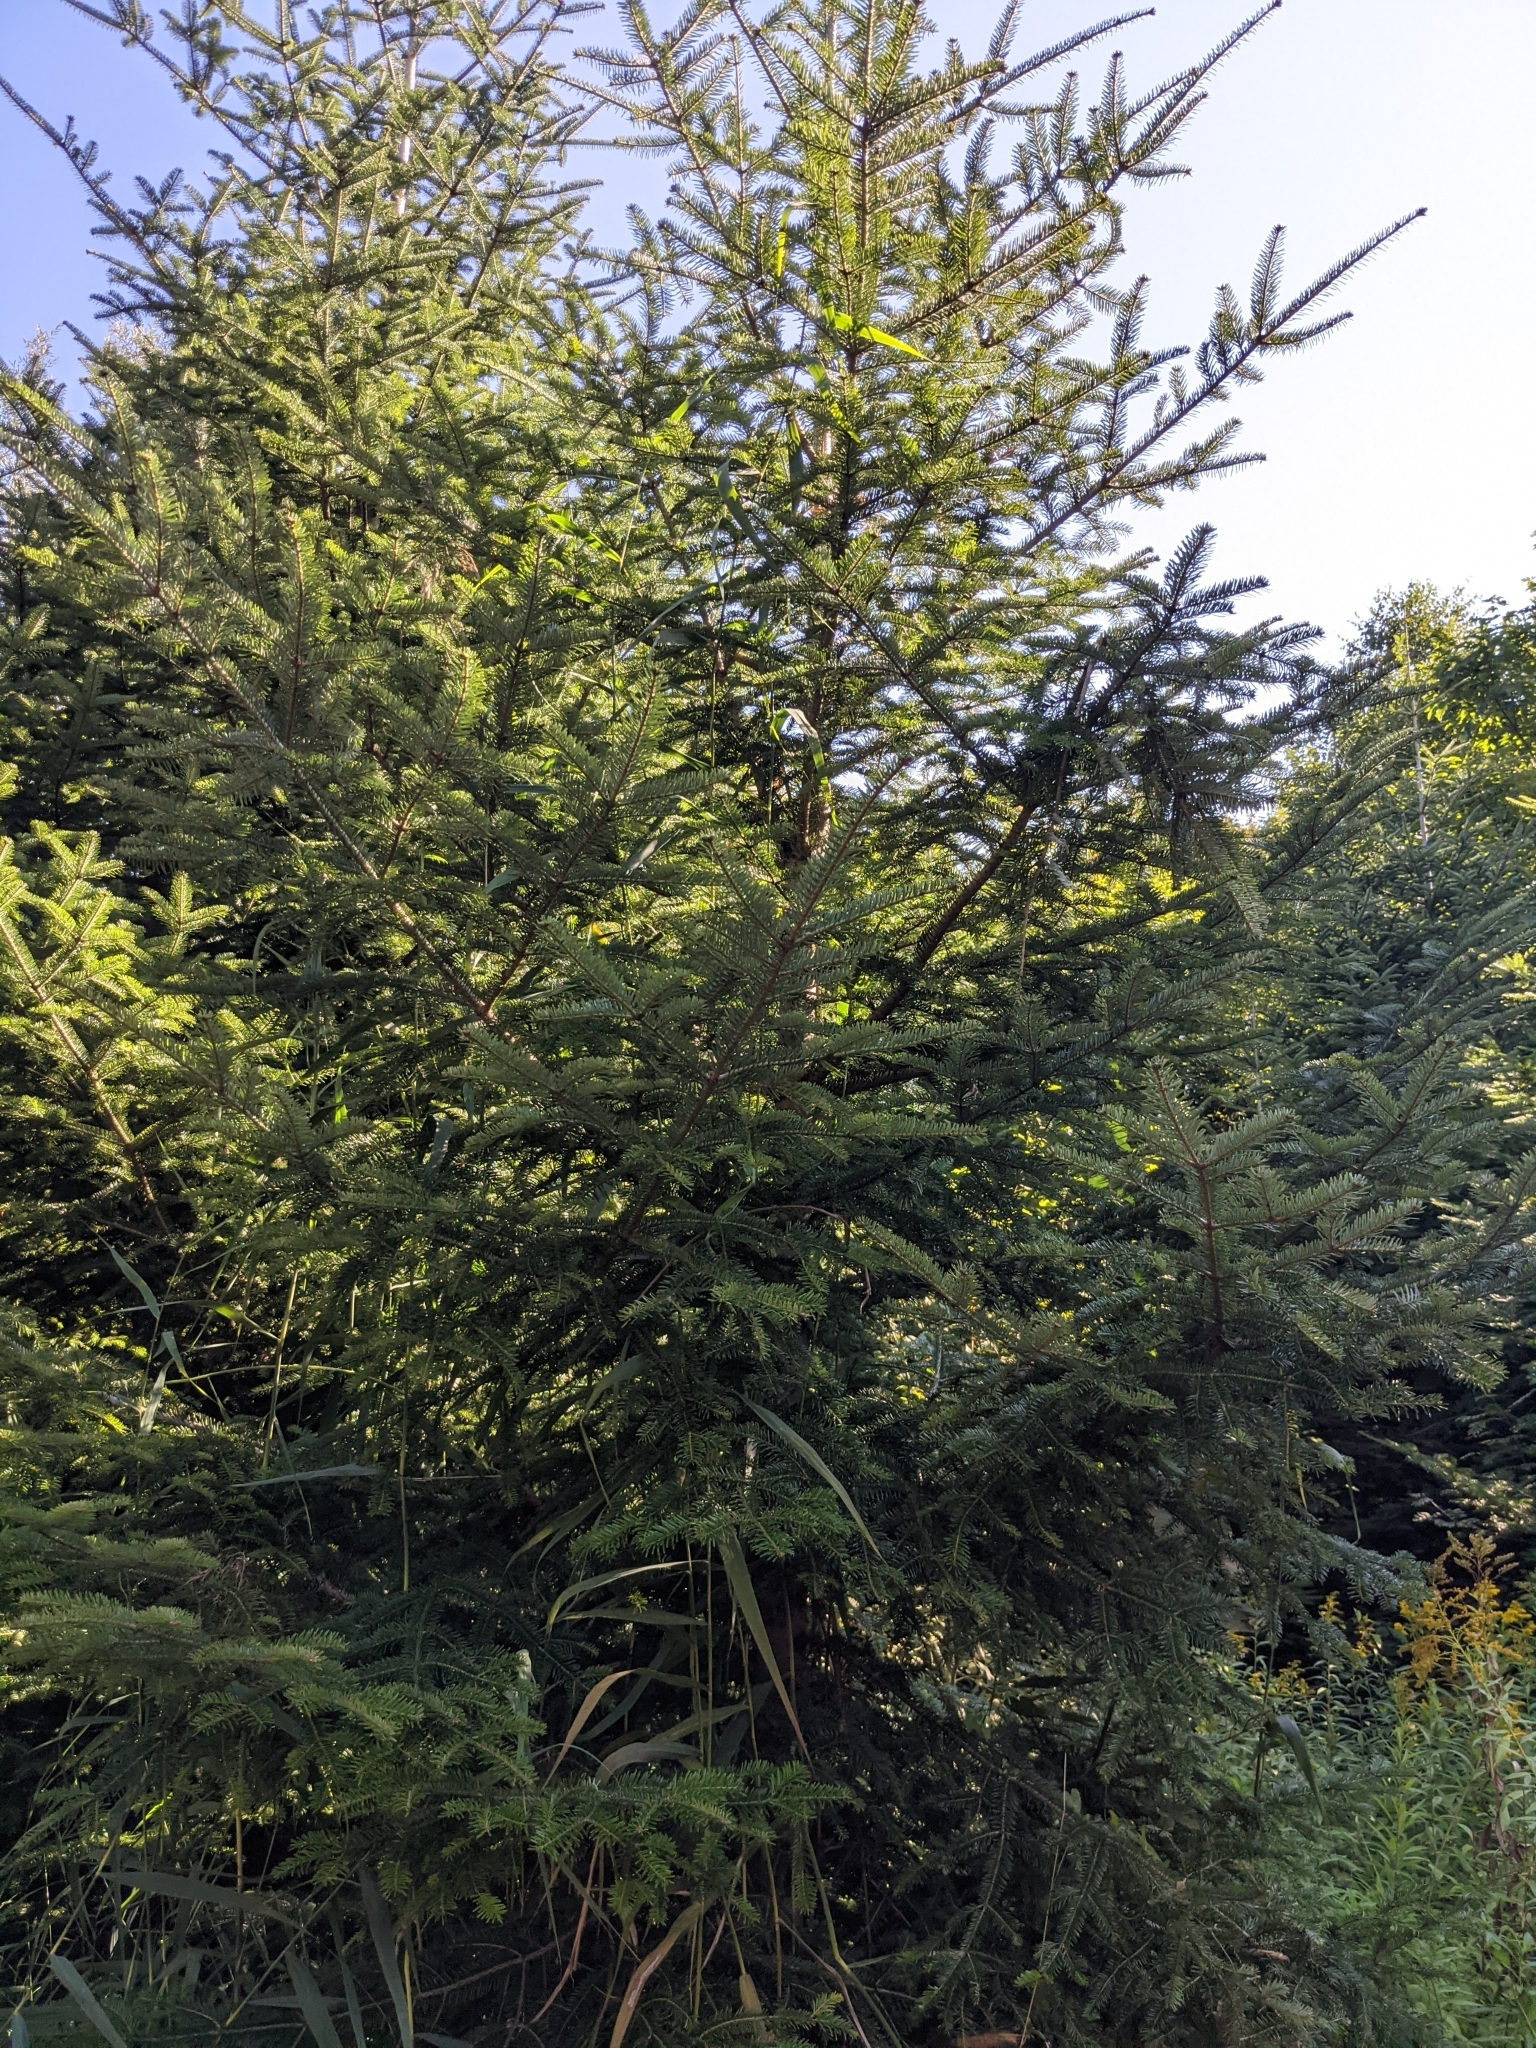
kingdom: Plantae
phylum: Tracheophyta
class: Pinopsida
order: Pinales
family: Pinaceae
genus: Abies
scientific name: Abies alba
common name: Silver fir
